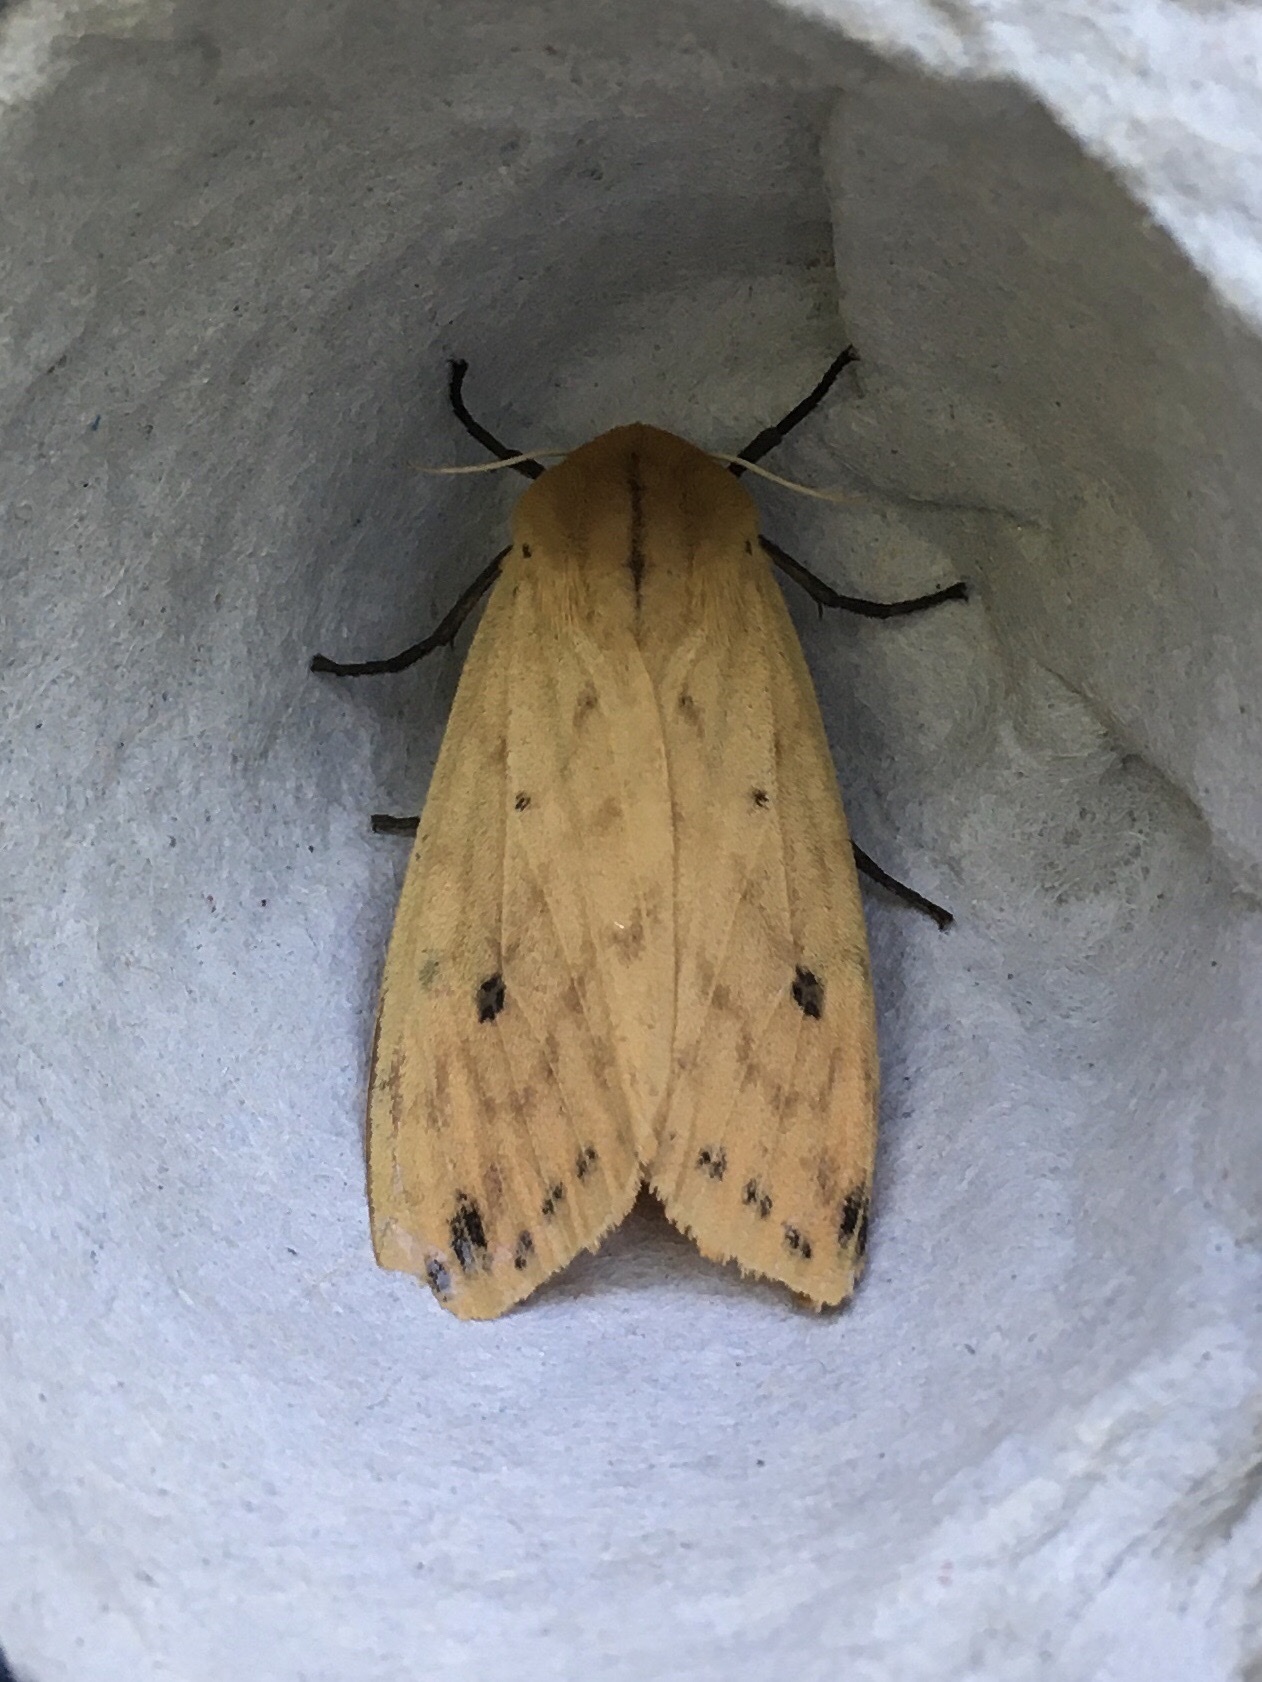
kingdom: Animalia
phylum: Arthropoda
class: Insecta
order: Lepidoptera
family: Erebidae
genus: Pyrrharctia
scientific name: Pyrrharctia isabella
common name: Isabella tiger moth
